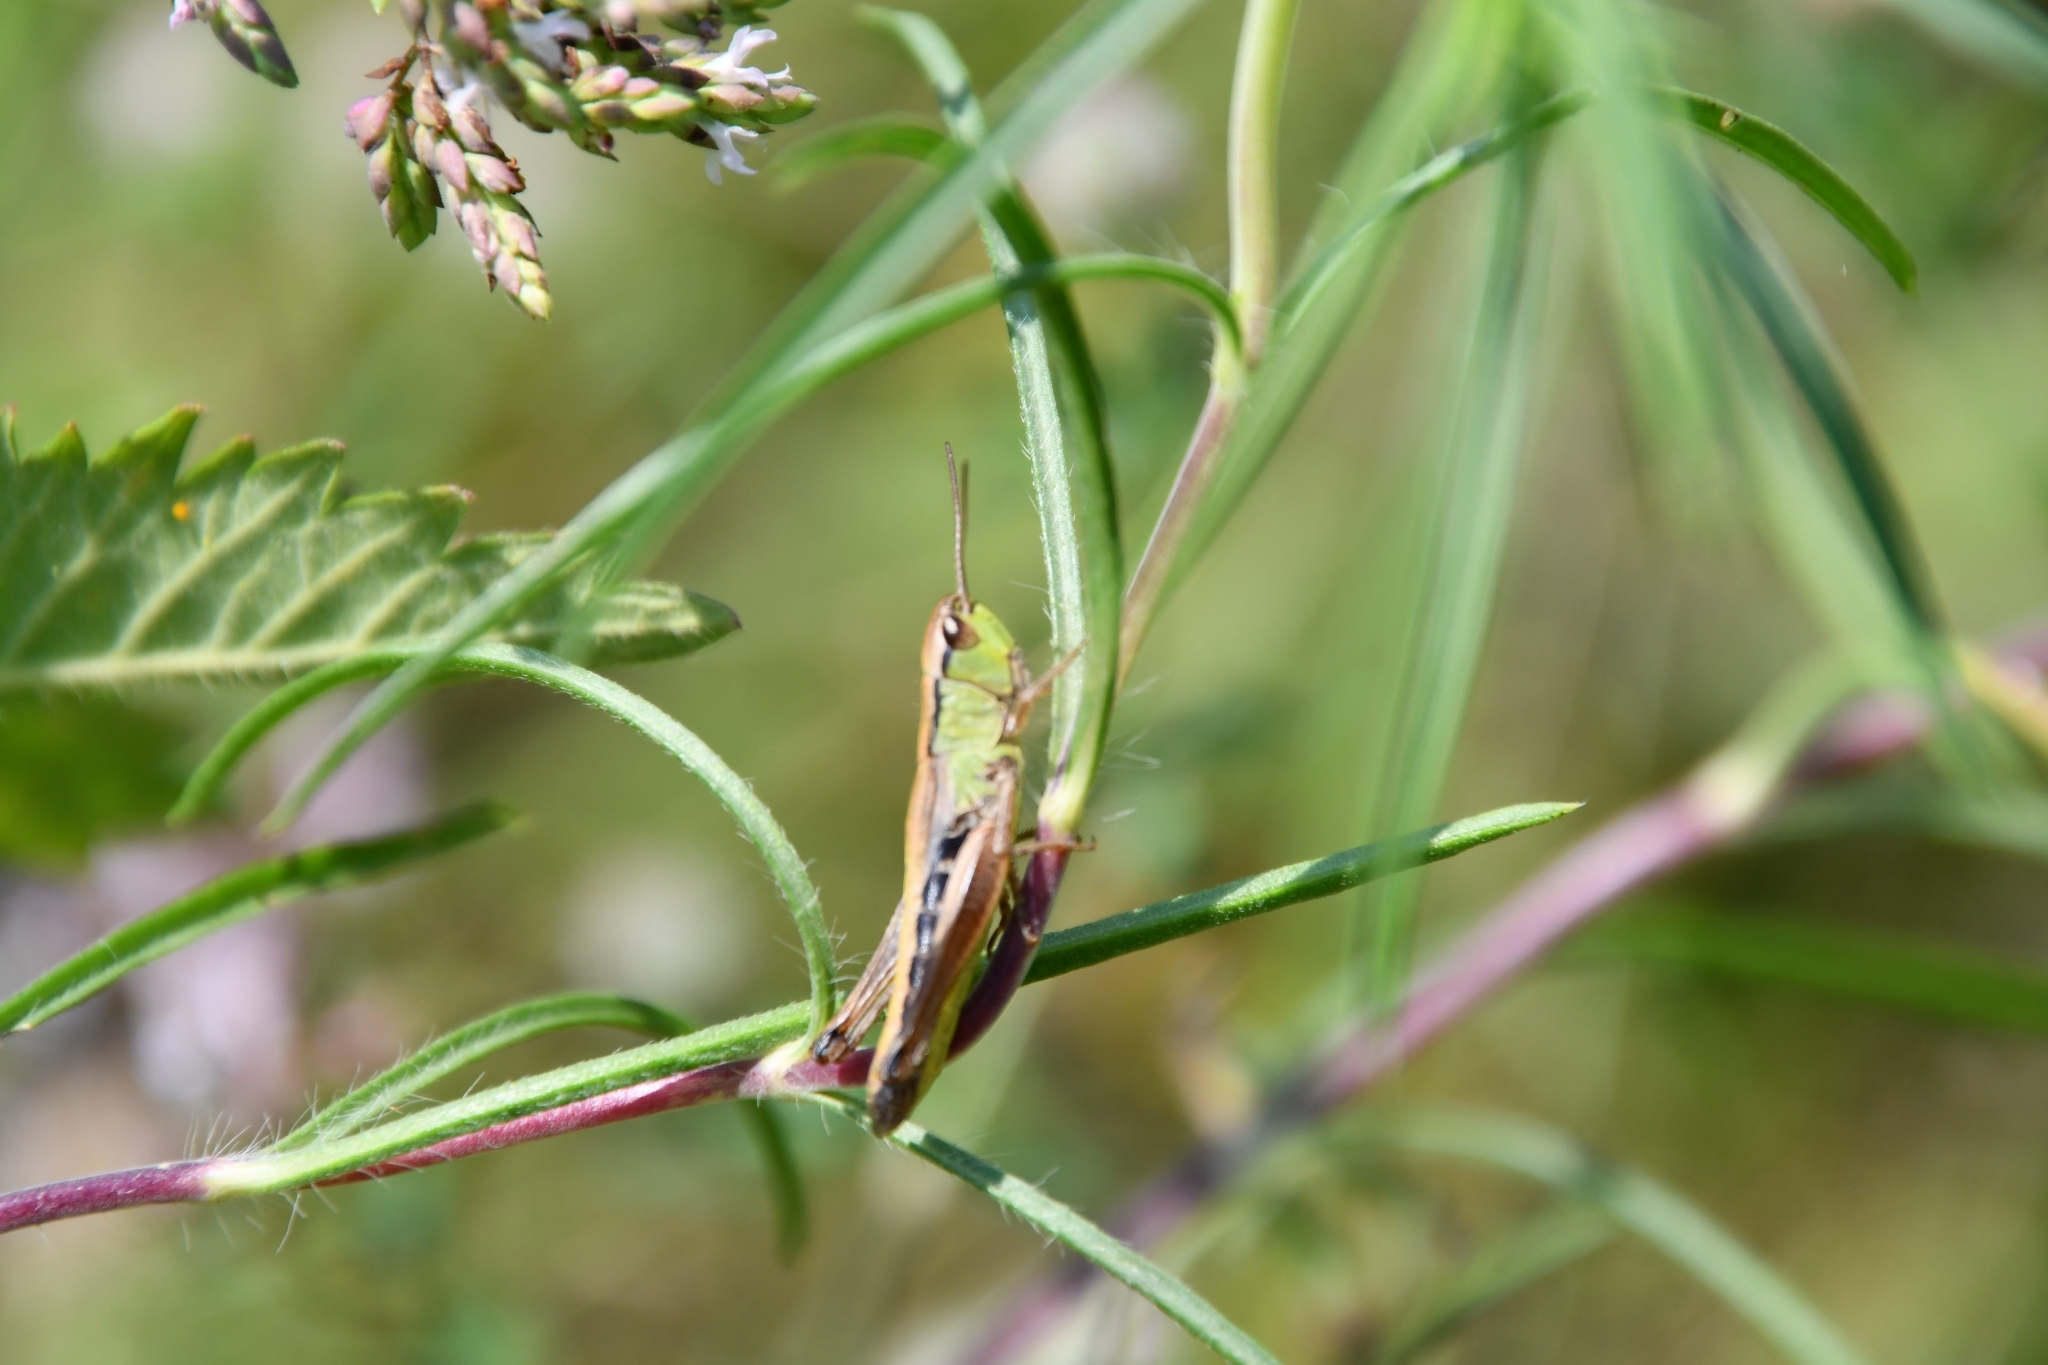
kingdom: Animalia
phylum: Arthropoda
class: Insecta
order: Orthoptera
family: Acrididae
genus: Pseudochorthippus
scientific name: Pseudochorthippus parallelus
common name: Meadow grasshopper
